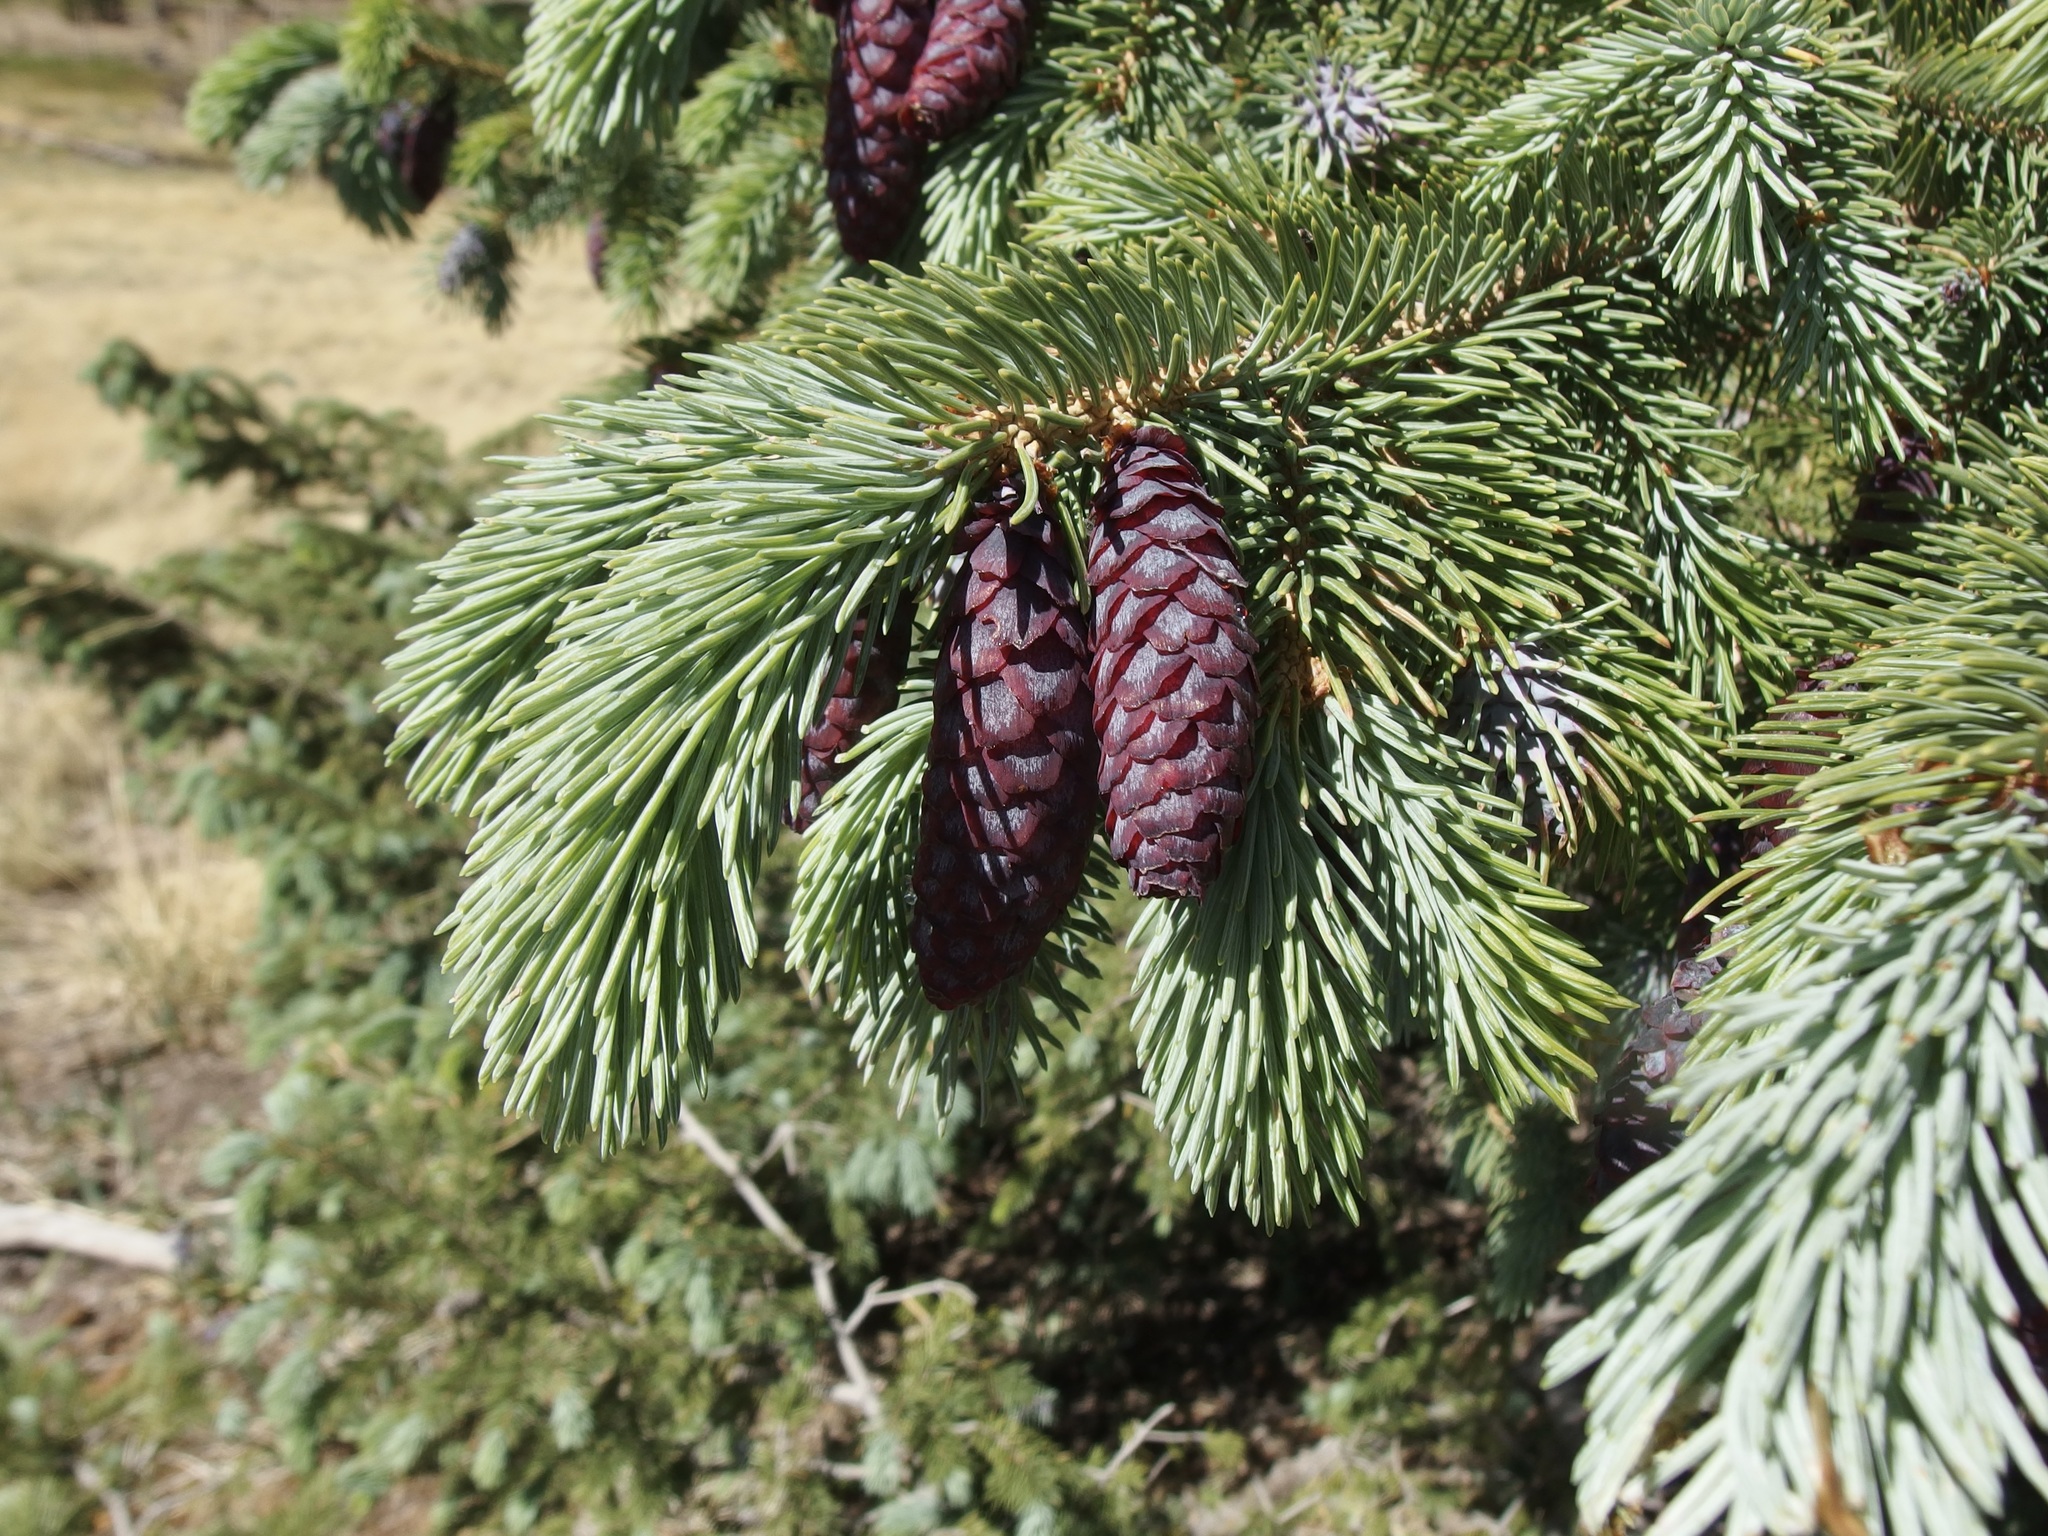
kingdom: Plantae
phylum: Tracheophyta
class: Pinopsida
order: Pinales
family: Pinaceae
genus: Picea
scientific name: Picea engelmannii
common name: Engelmann spruce
